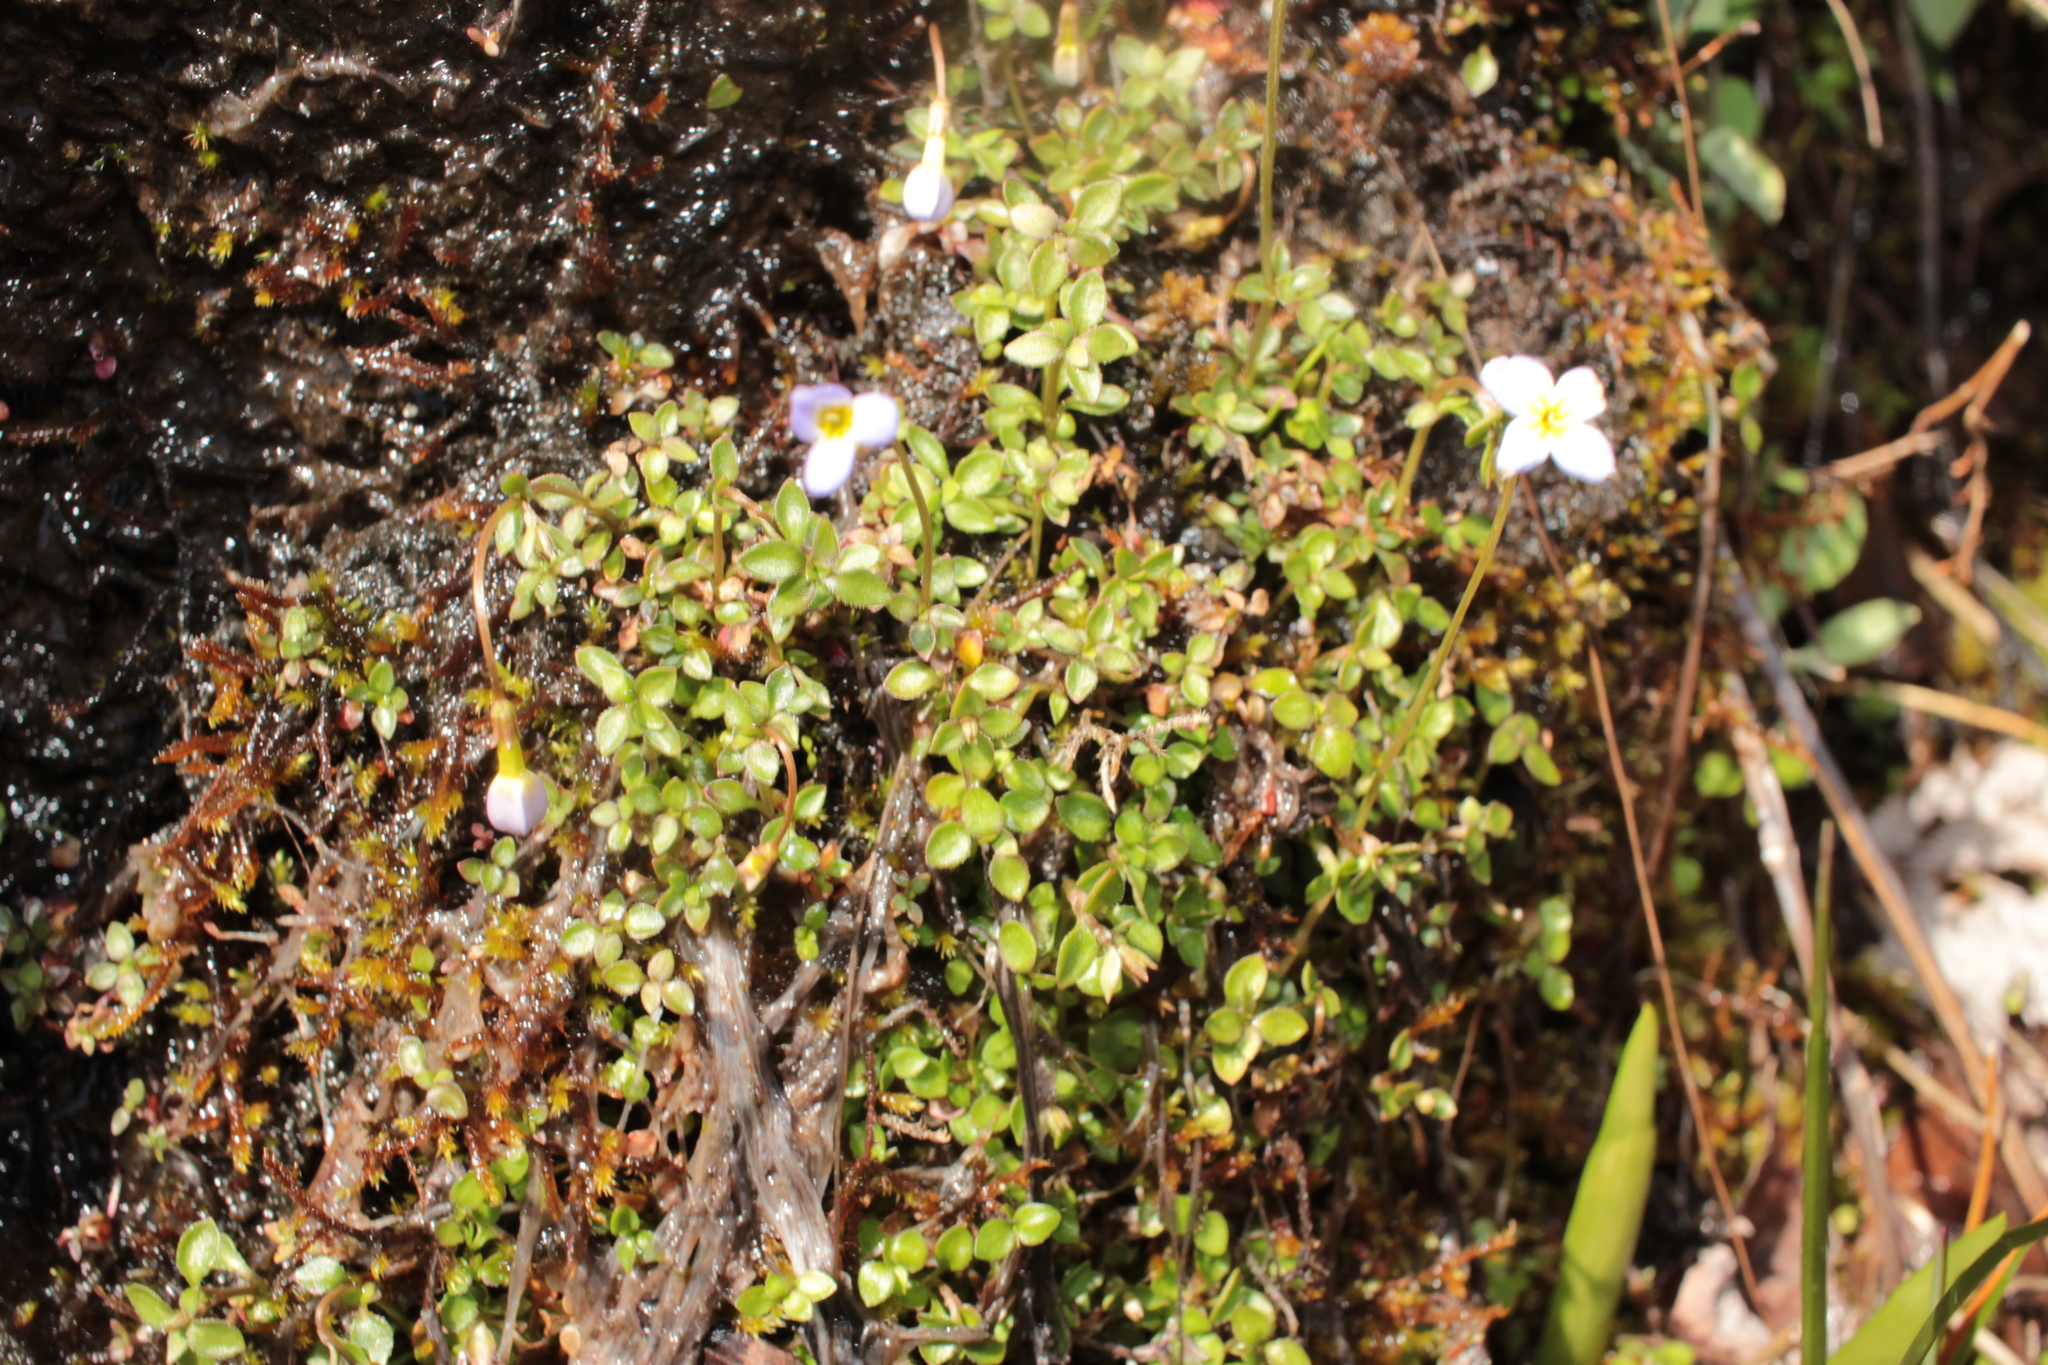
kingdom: Plantae
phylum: Tracheophyta
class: Magnoliopsida
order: Gentianales
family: Rubiaceae
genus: Houstonia
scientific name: Houstonia serpyllifolia
